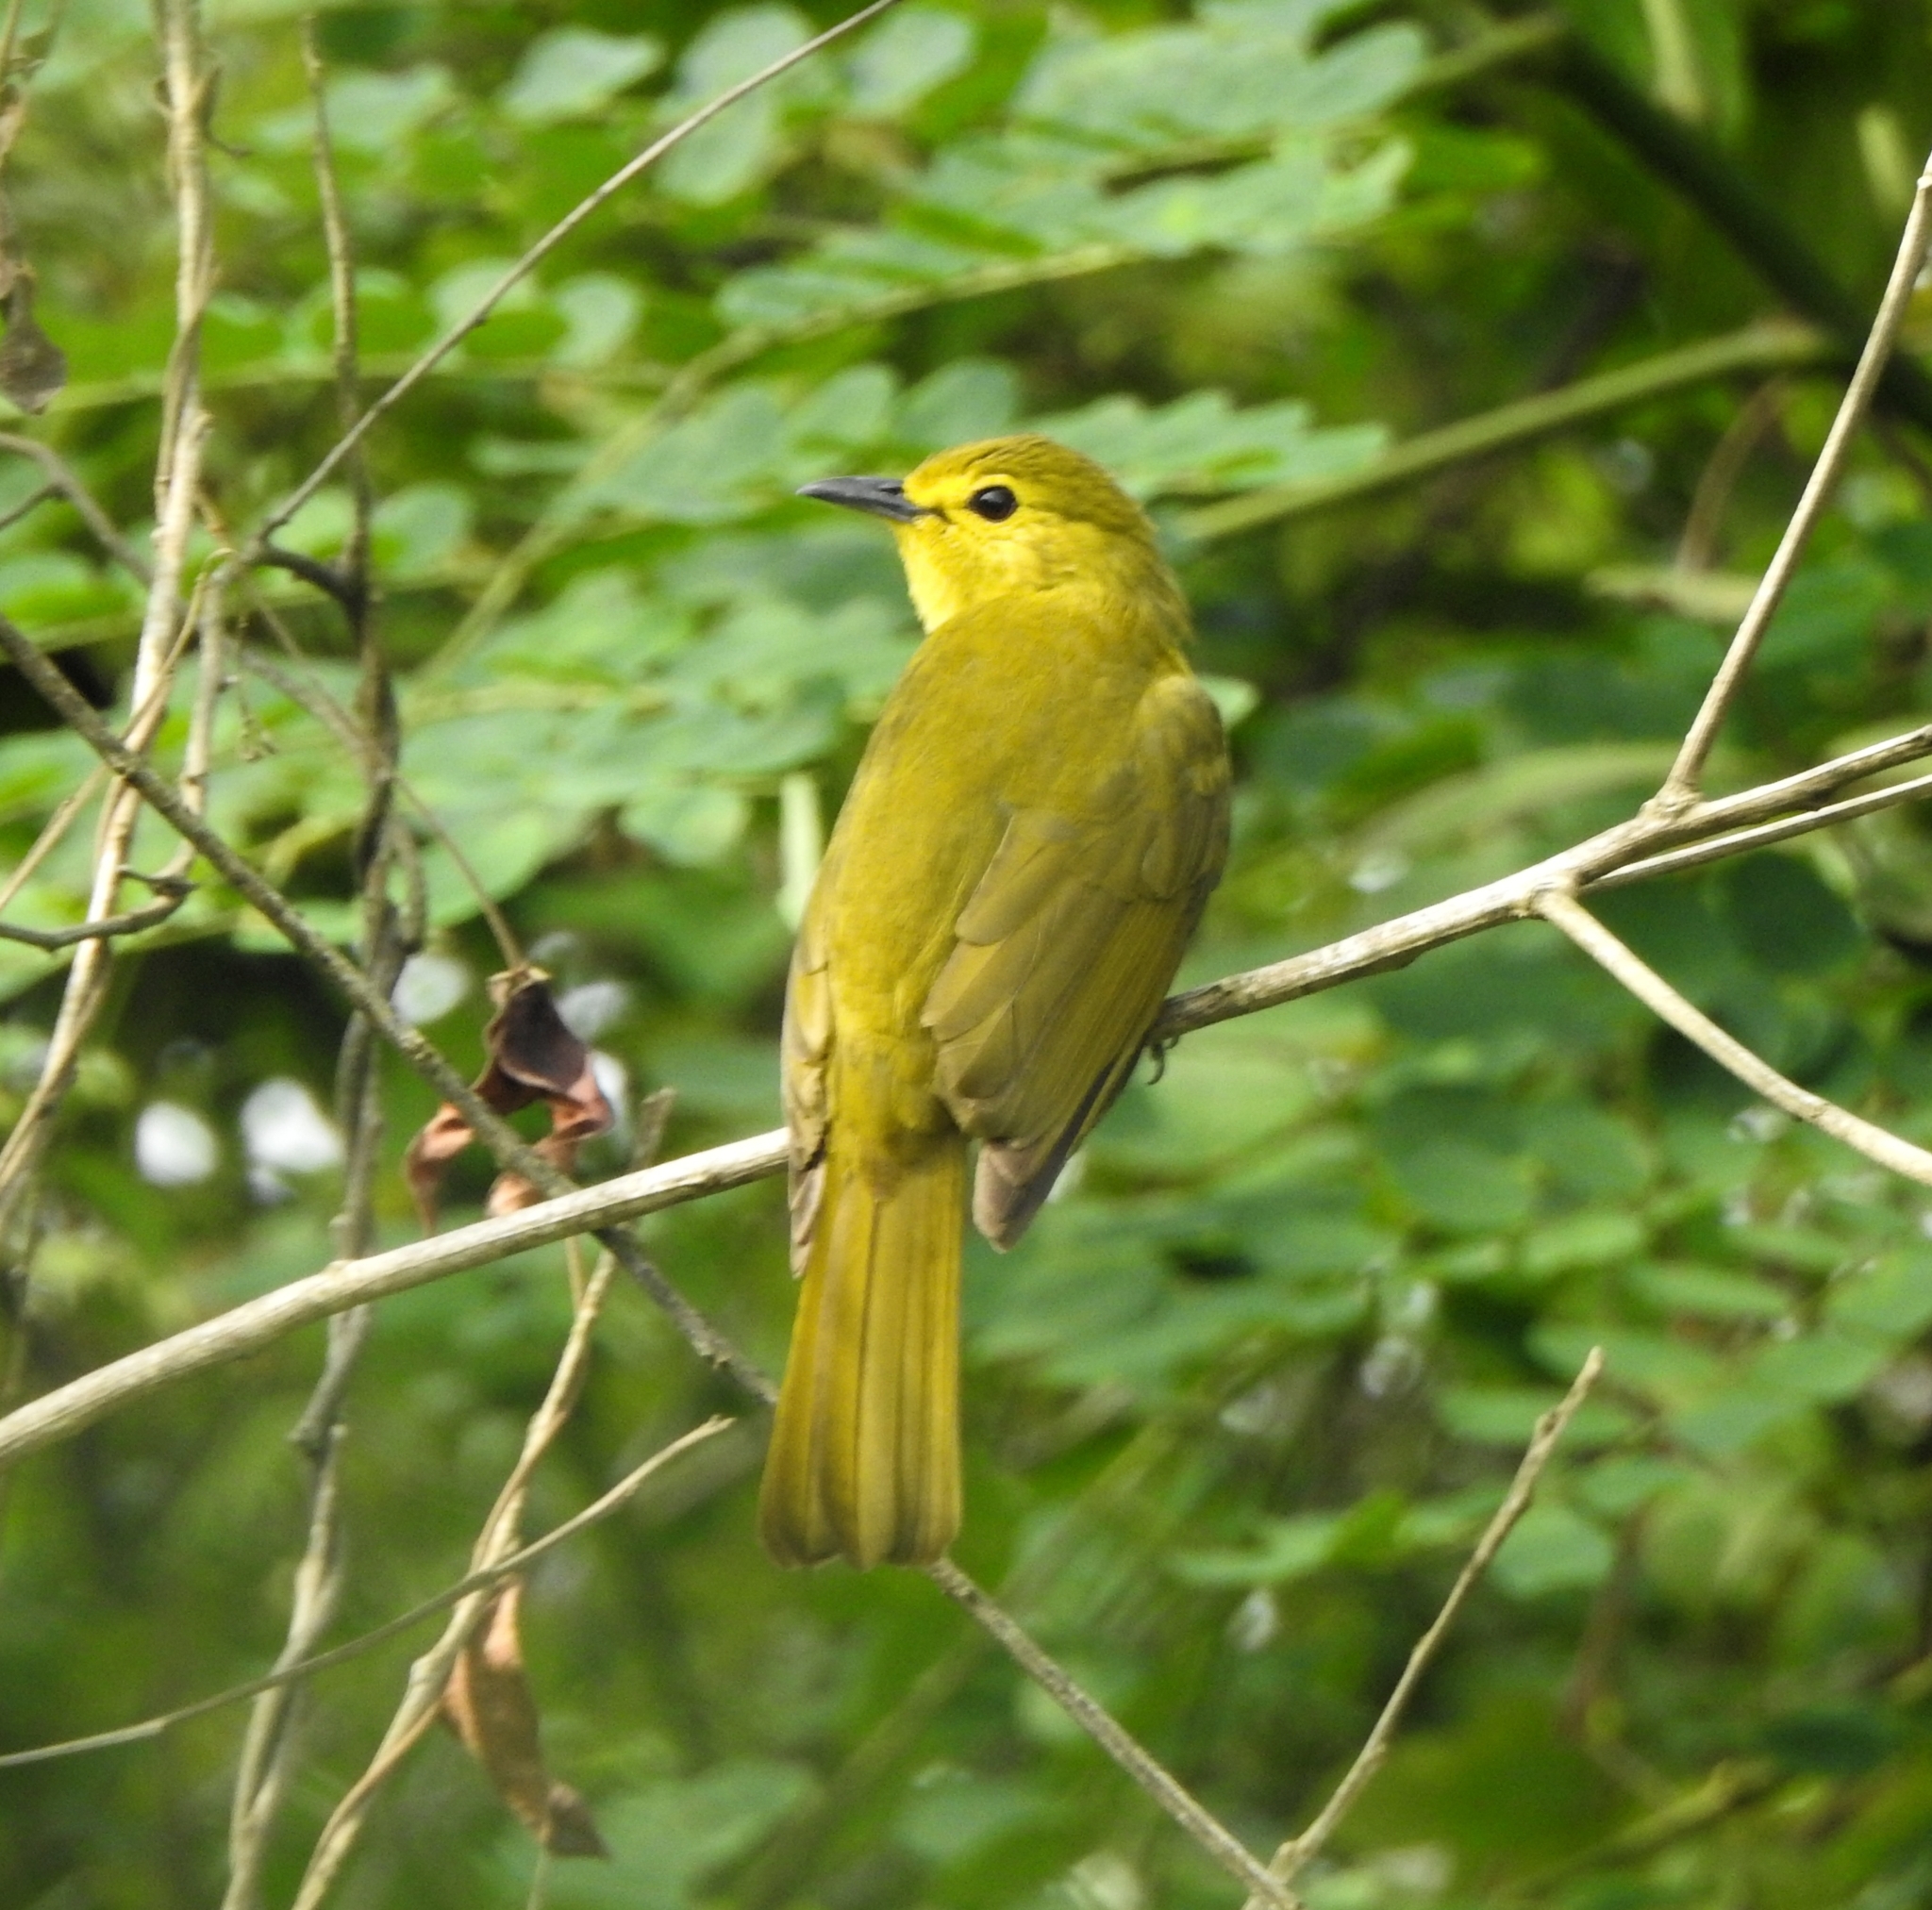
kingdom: Animalia
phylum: Chordata
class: Aves
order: Passeriformes
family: Pycnonotidae
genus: Acritillas
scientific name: Acritillas indica
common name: Yellow-browed bulbul
